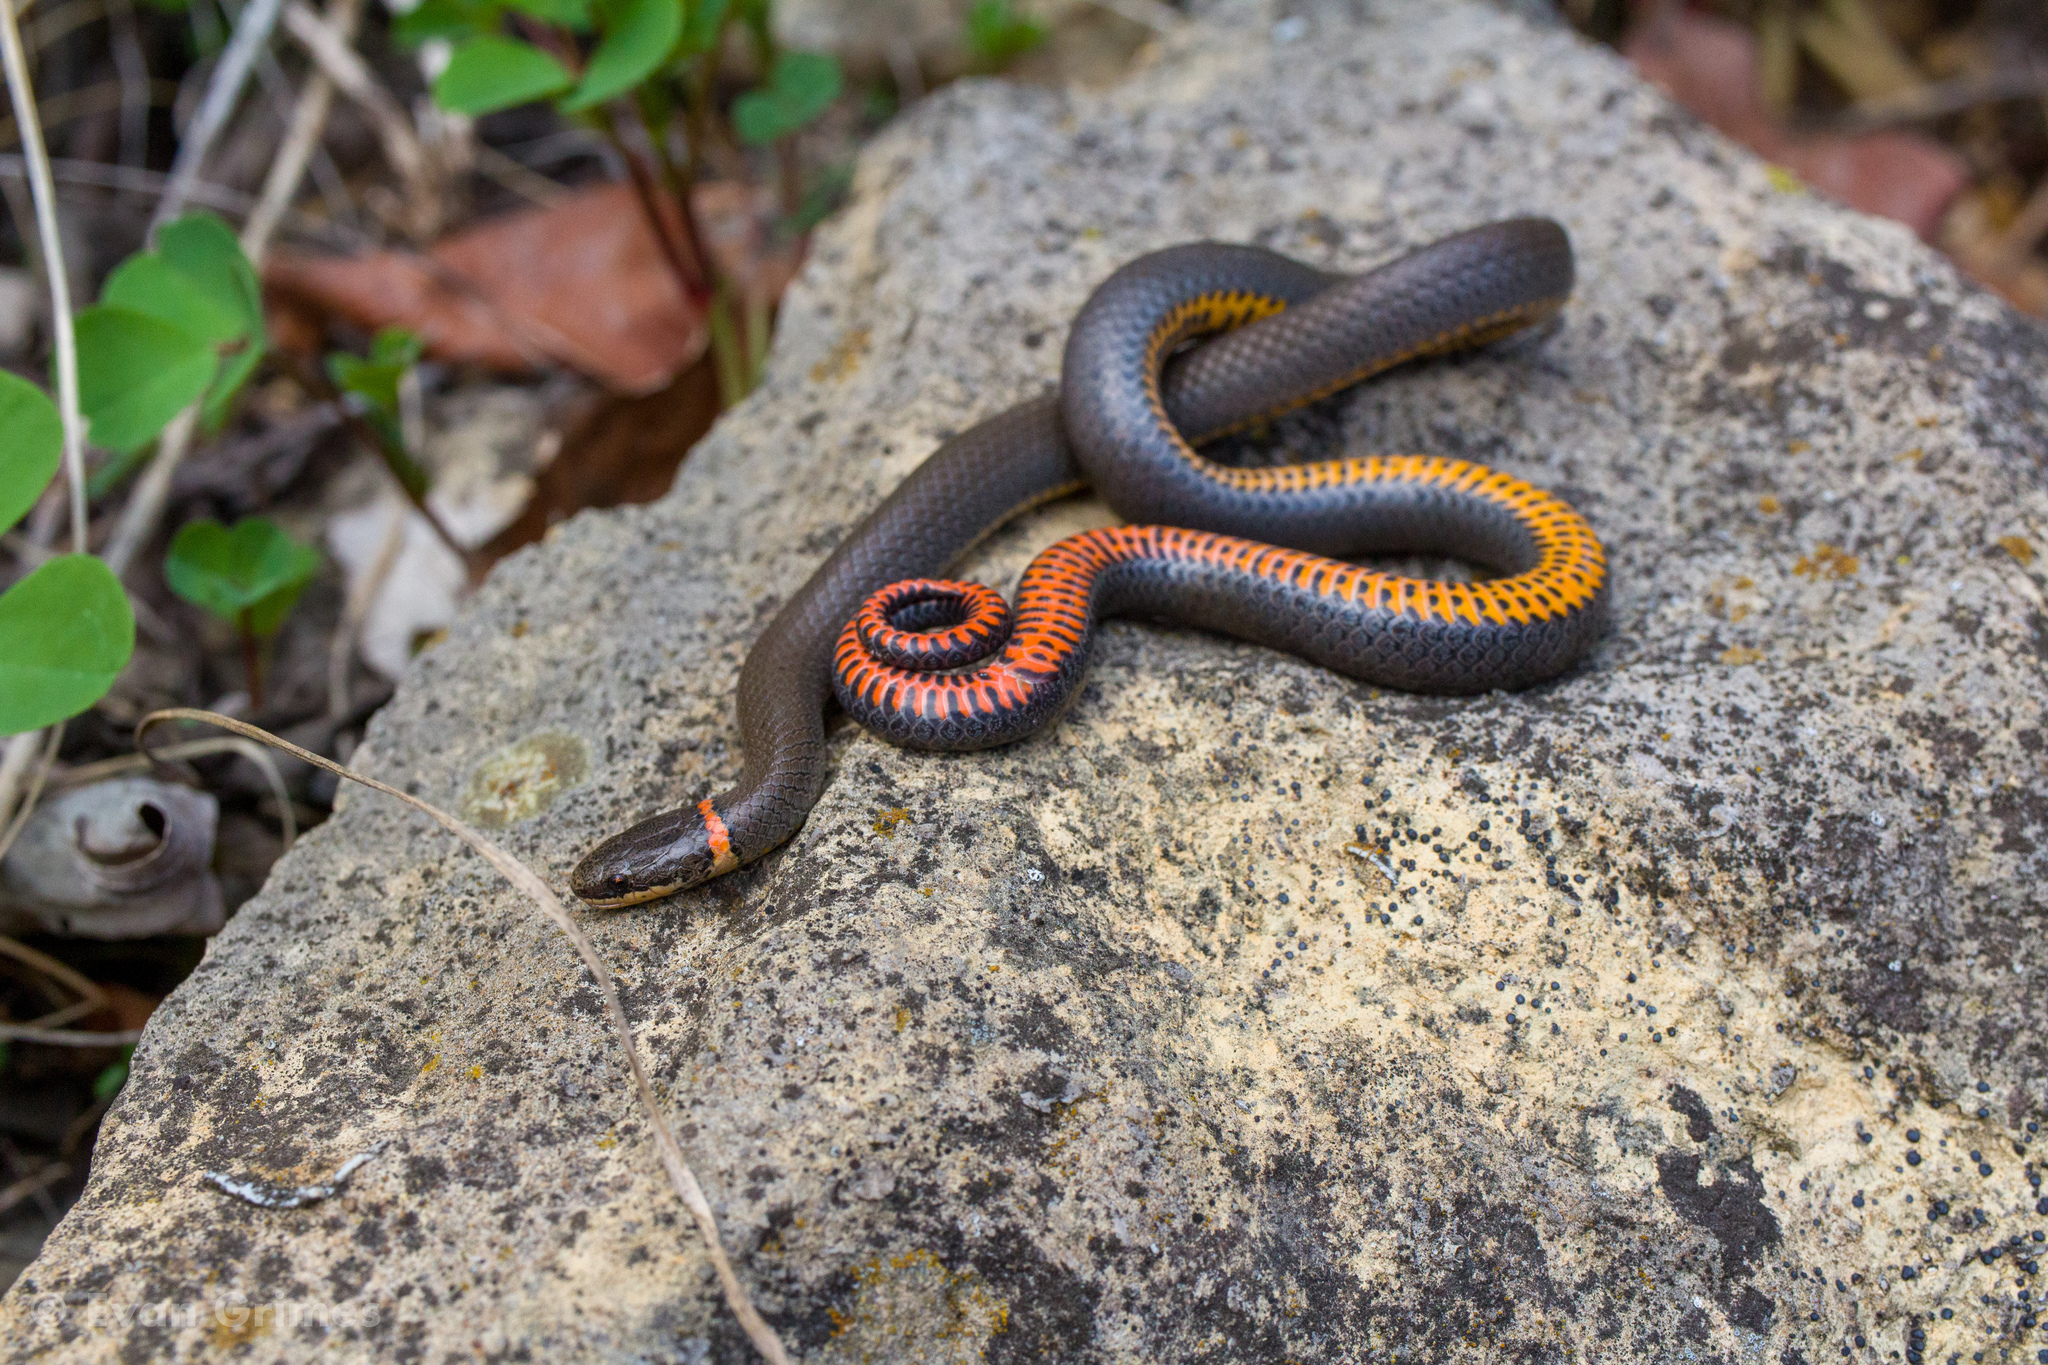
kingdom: Animalia
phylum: Chordata
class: Squamata
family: Colubridae
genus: Diadophis
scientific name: Diadophis punctatus
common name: Ringneck snake
